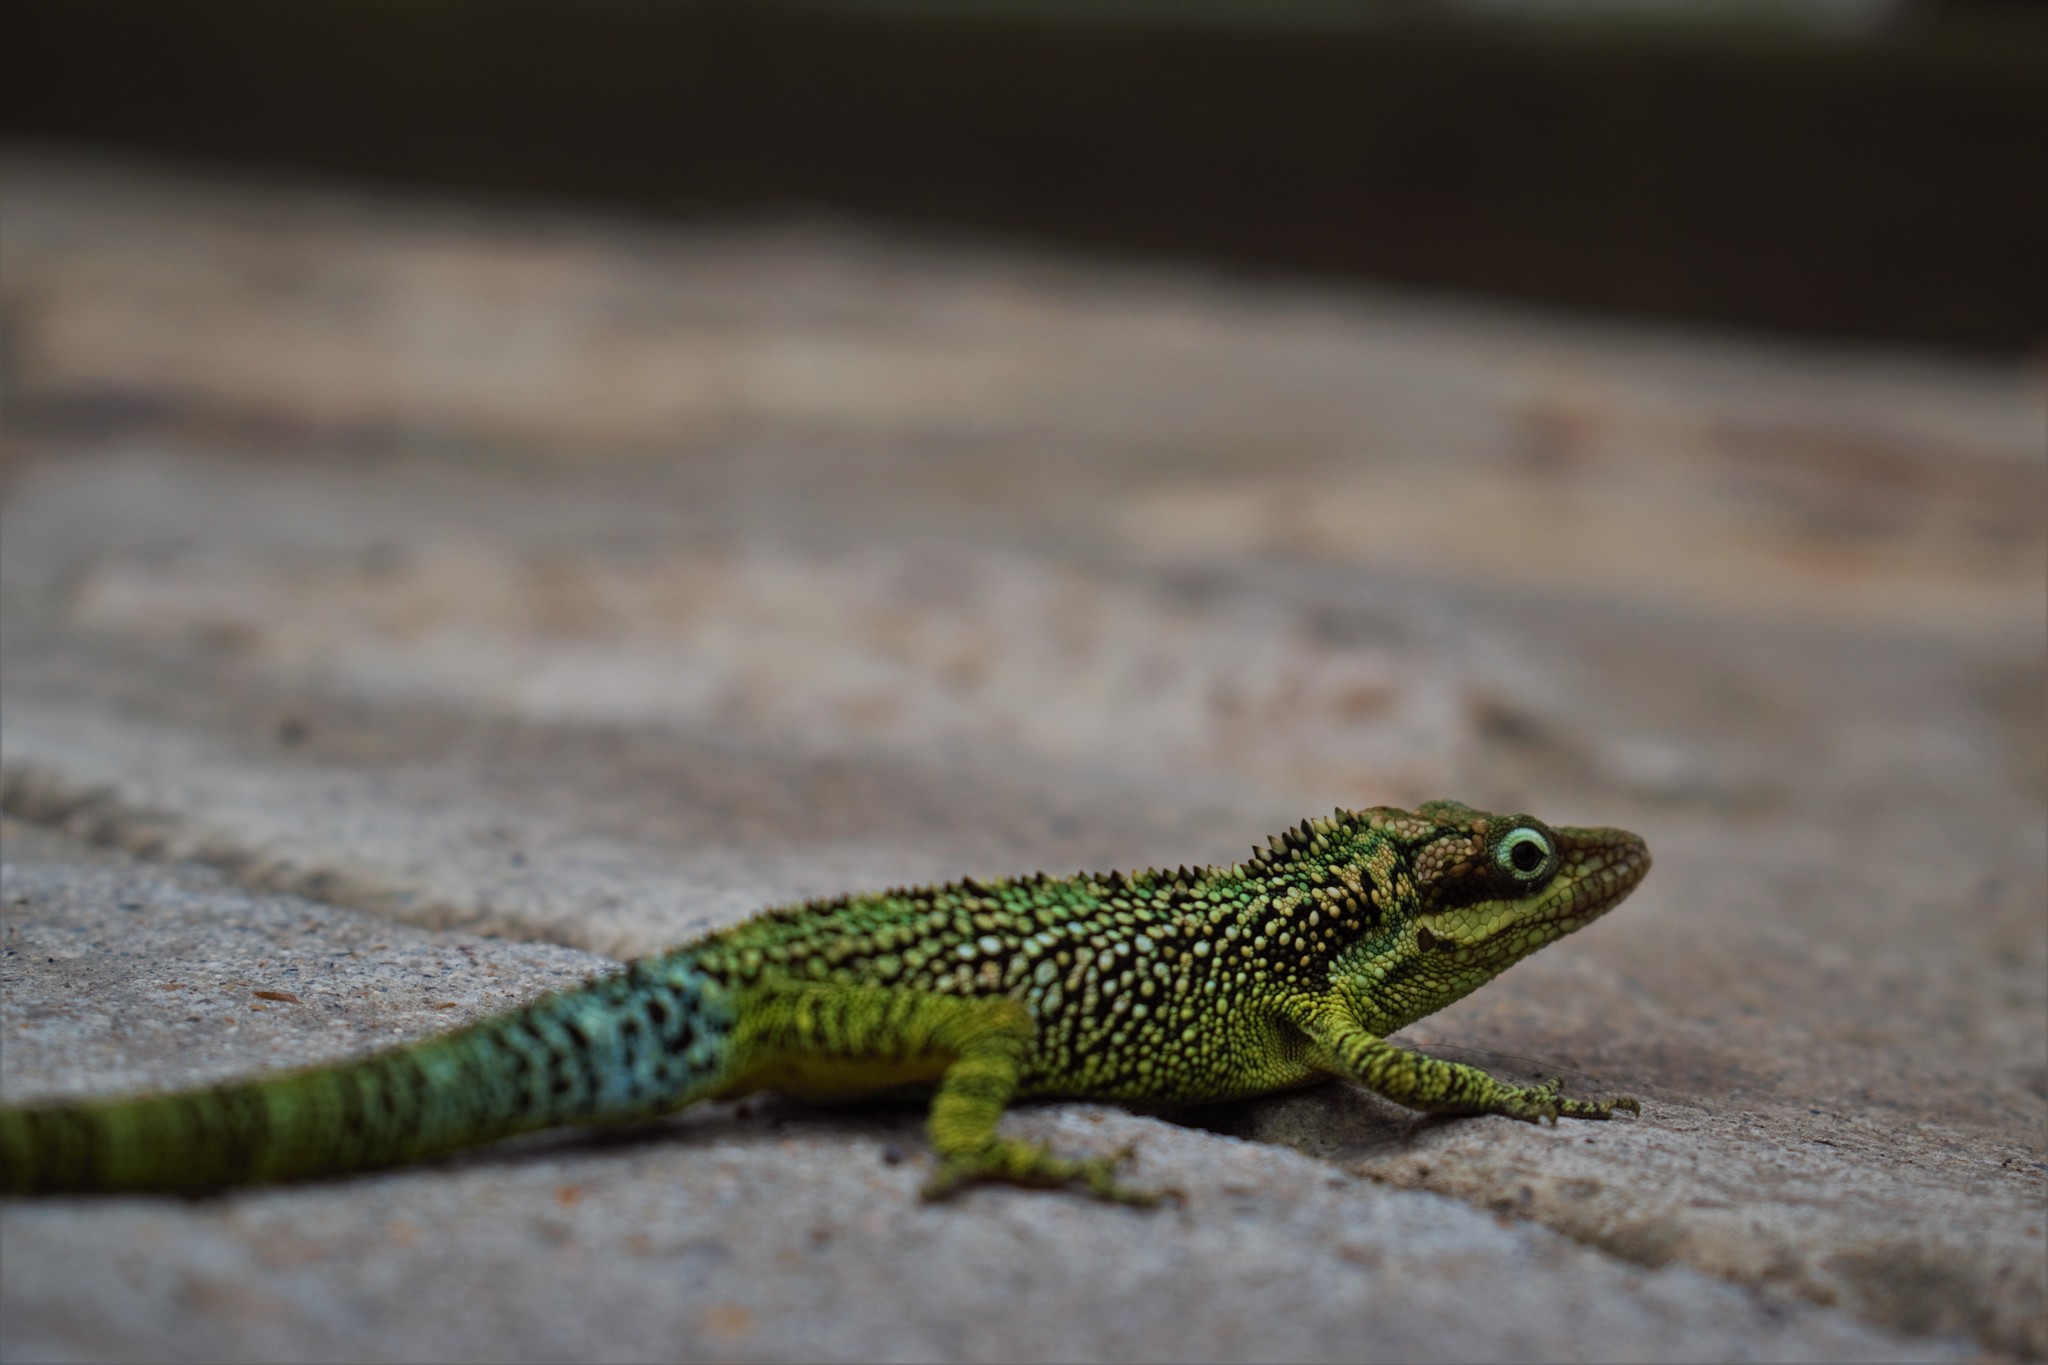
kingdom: Animalia
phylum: Chordata
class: Squamata
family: Dactyloidae
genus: Anolis
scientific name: Anolis heterodermus
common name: Flat andes anole
